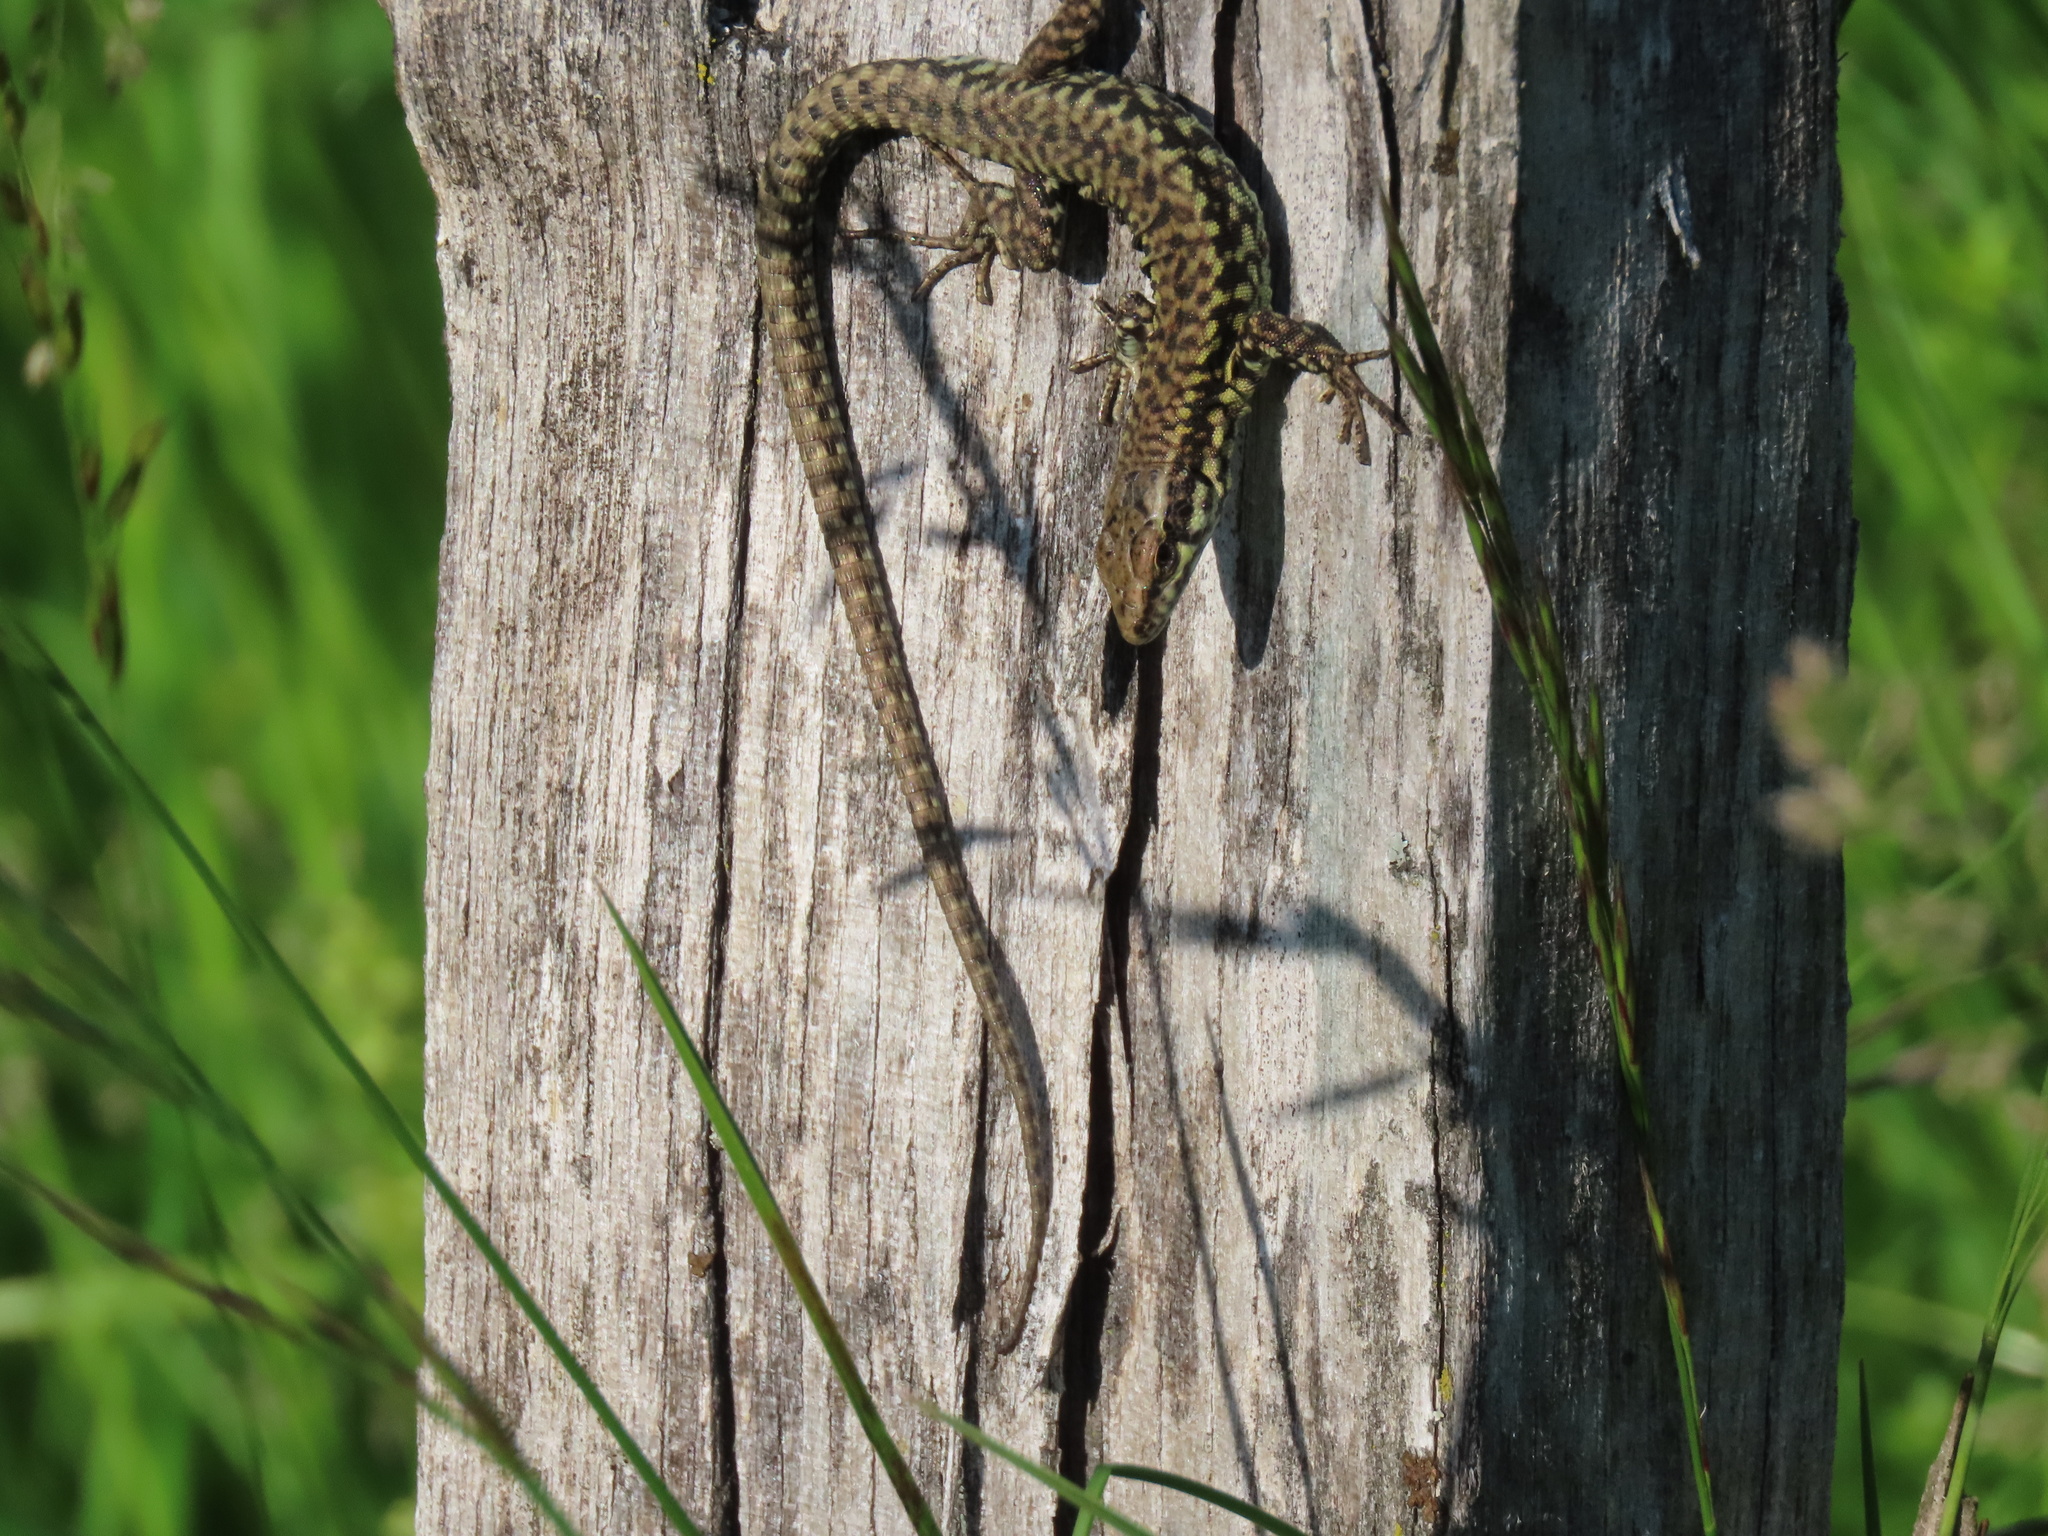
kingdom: Animalia
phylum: Chordata
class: Squamata
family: Lacertidae
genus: Podarcis
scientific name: Podarcis muralis
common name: Common wall lizard
